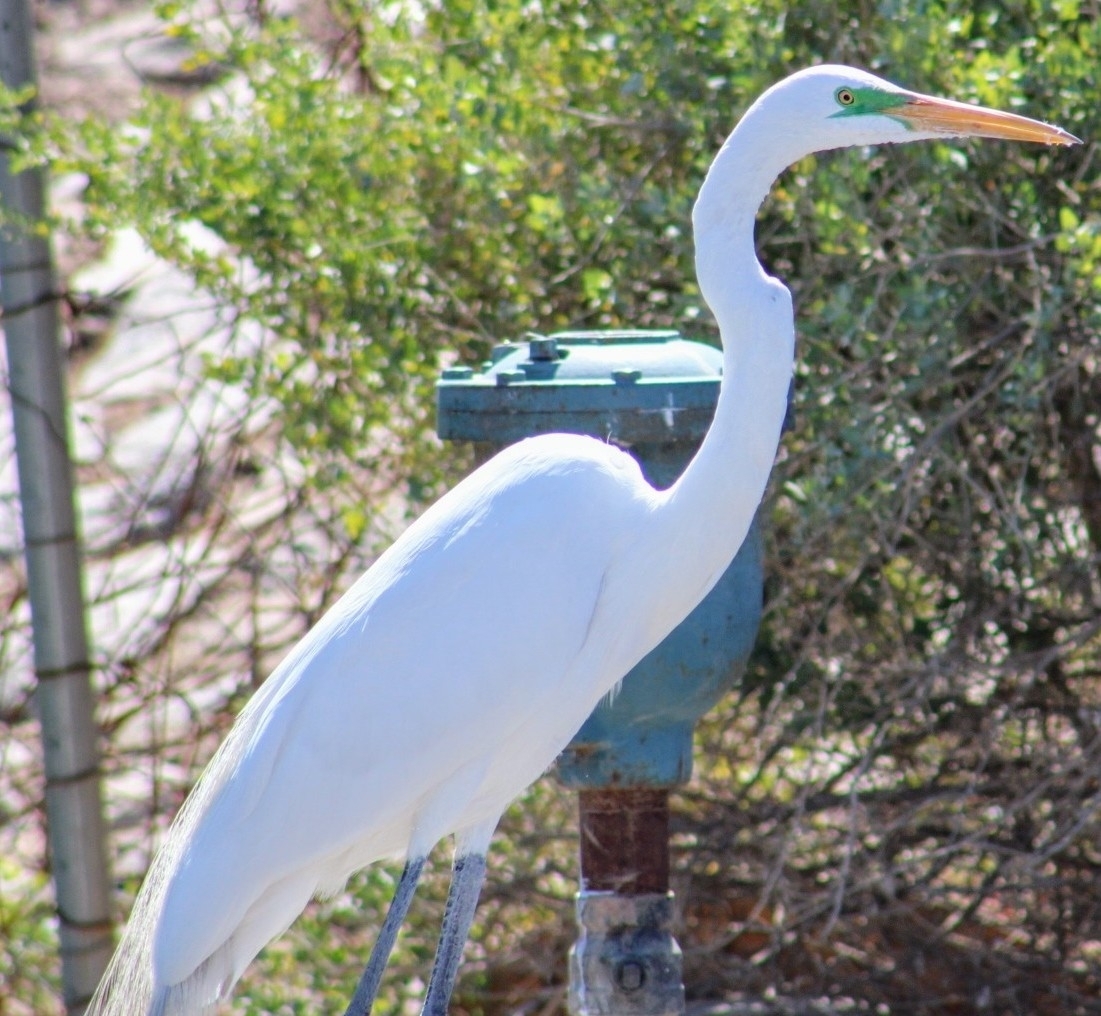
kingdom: Animalia
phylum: Chordata
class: Aves
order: Pelecaniformes
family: Ardeidae
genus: Ardea
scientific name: Ardea alba
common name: Great egret
